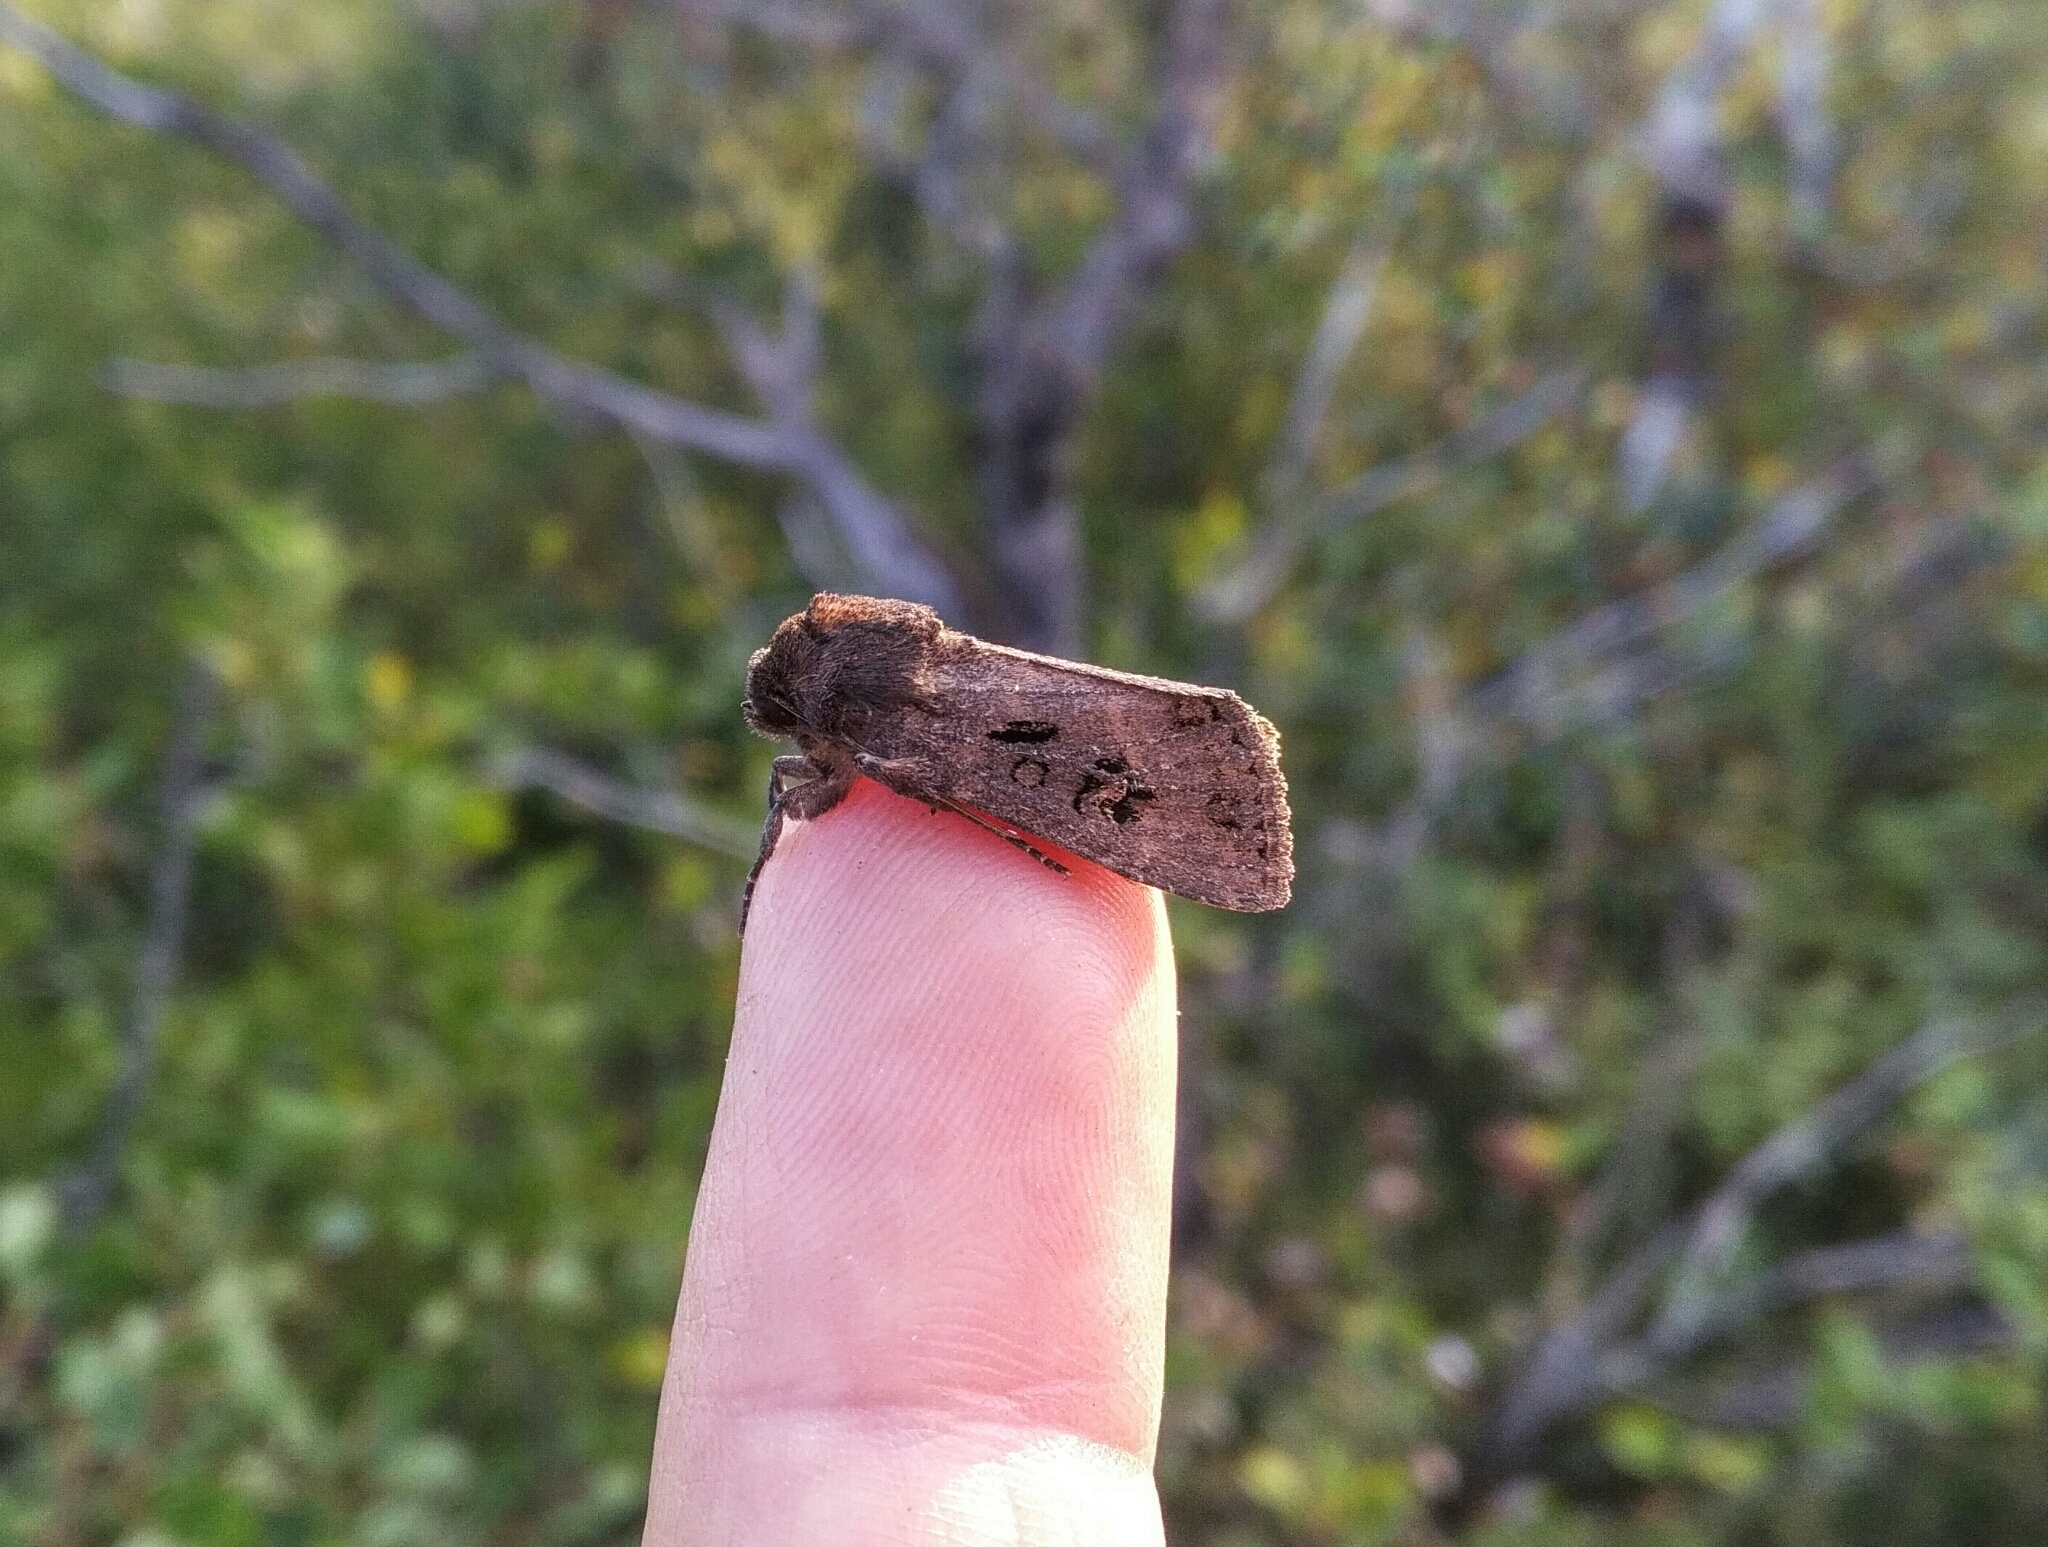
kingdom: Animalia
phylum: Arthropoda
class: Insecta
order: Lepidoptera
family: Noctuidae
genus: Resapamea
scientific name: Resapamea passer
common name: Dock rustic moth
